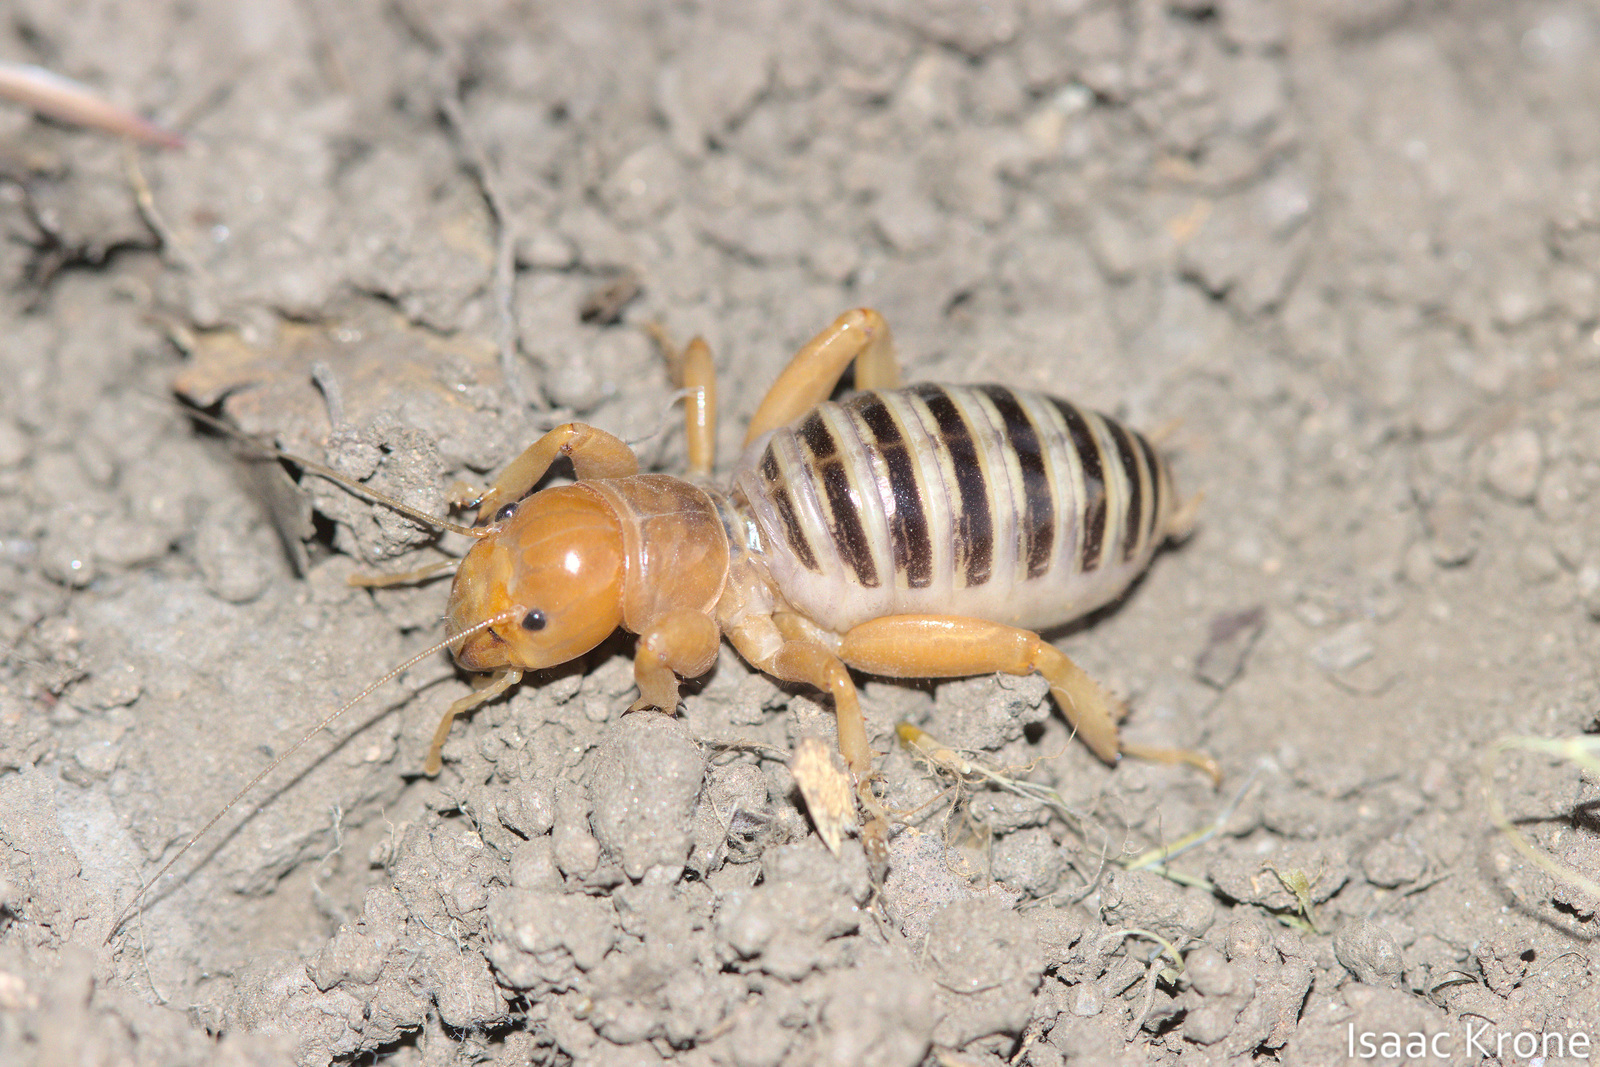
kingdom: Animalia
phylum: Arthropoda
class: Insecta
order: Orthoptera
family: Stenopelmatidae
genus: Ammopelmatus
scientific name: Ammopelmatus
